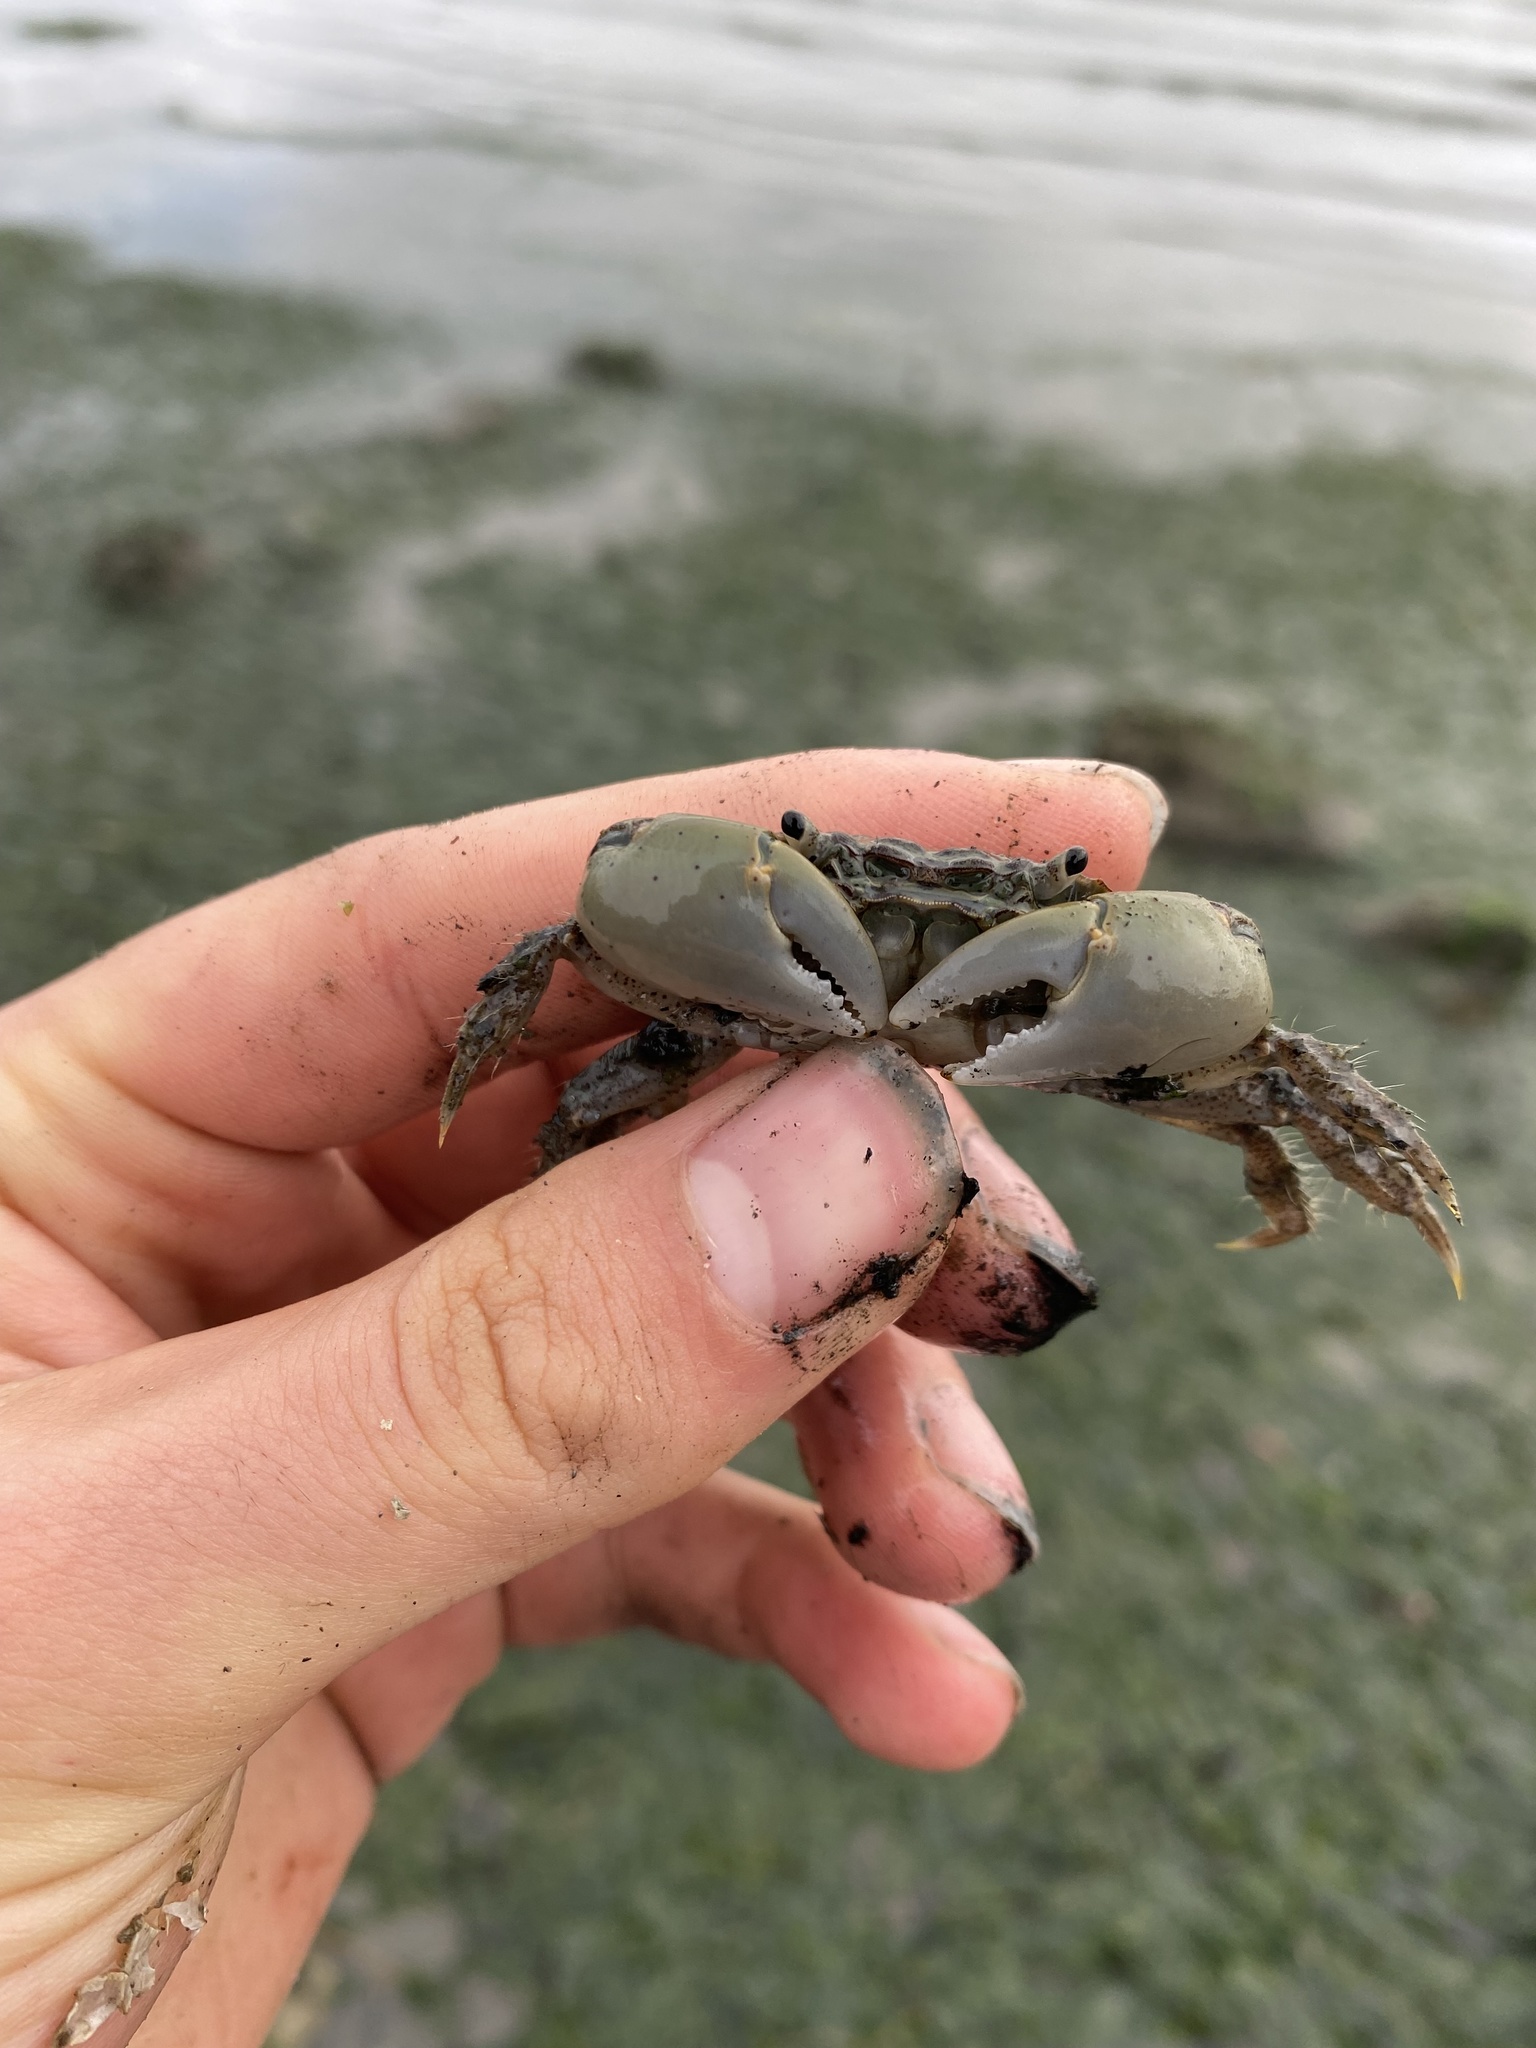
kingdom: Animalia
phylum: Arthropoda
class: Malacostraca
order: Decapoda
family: Varunidae
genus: Hemigrapsus
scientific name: Hemigrapsus oregonensis
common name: Yellow shore crab
